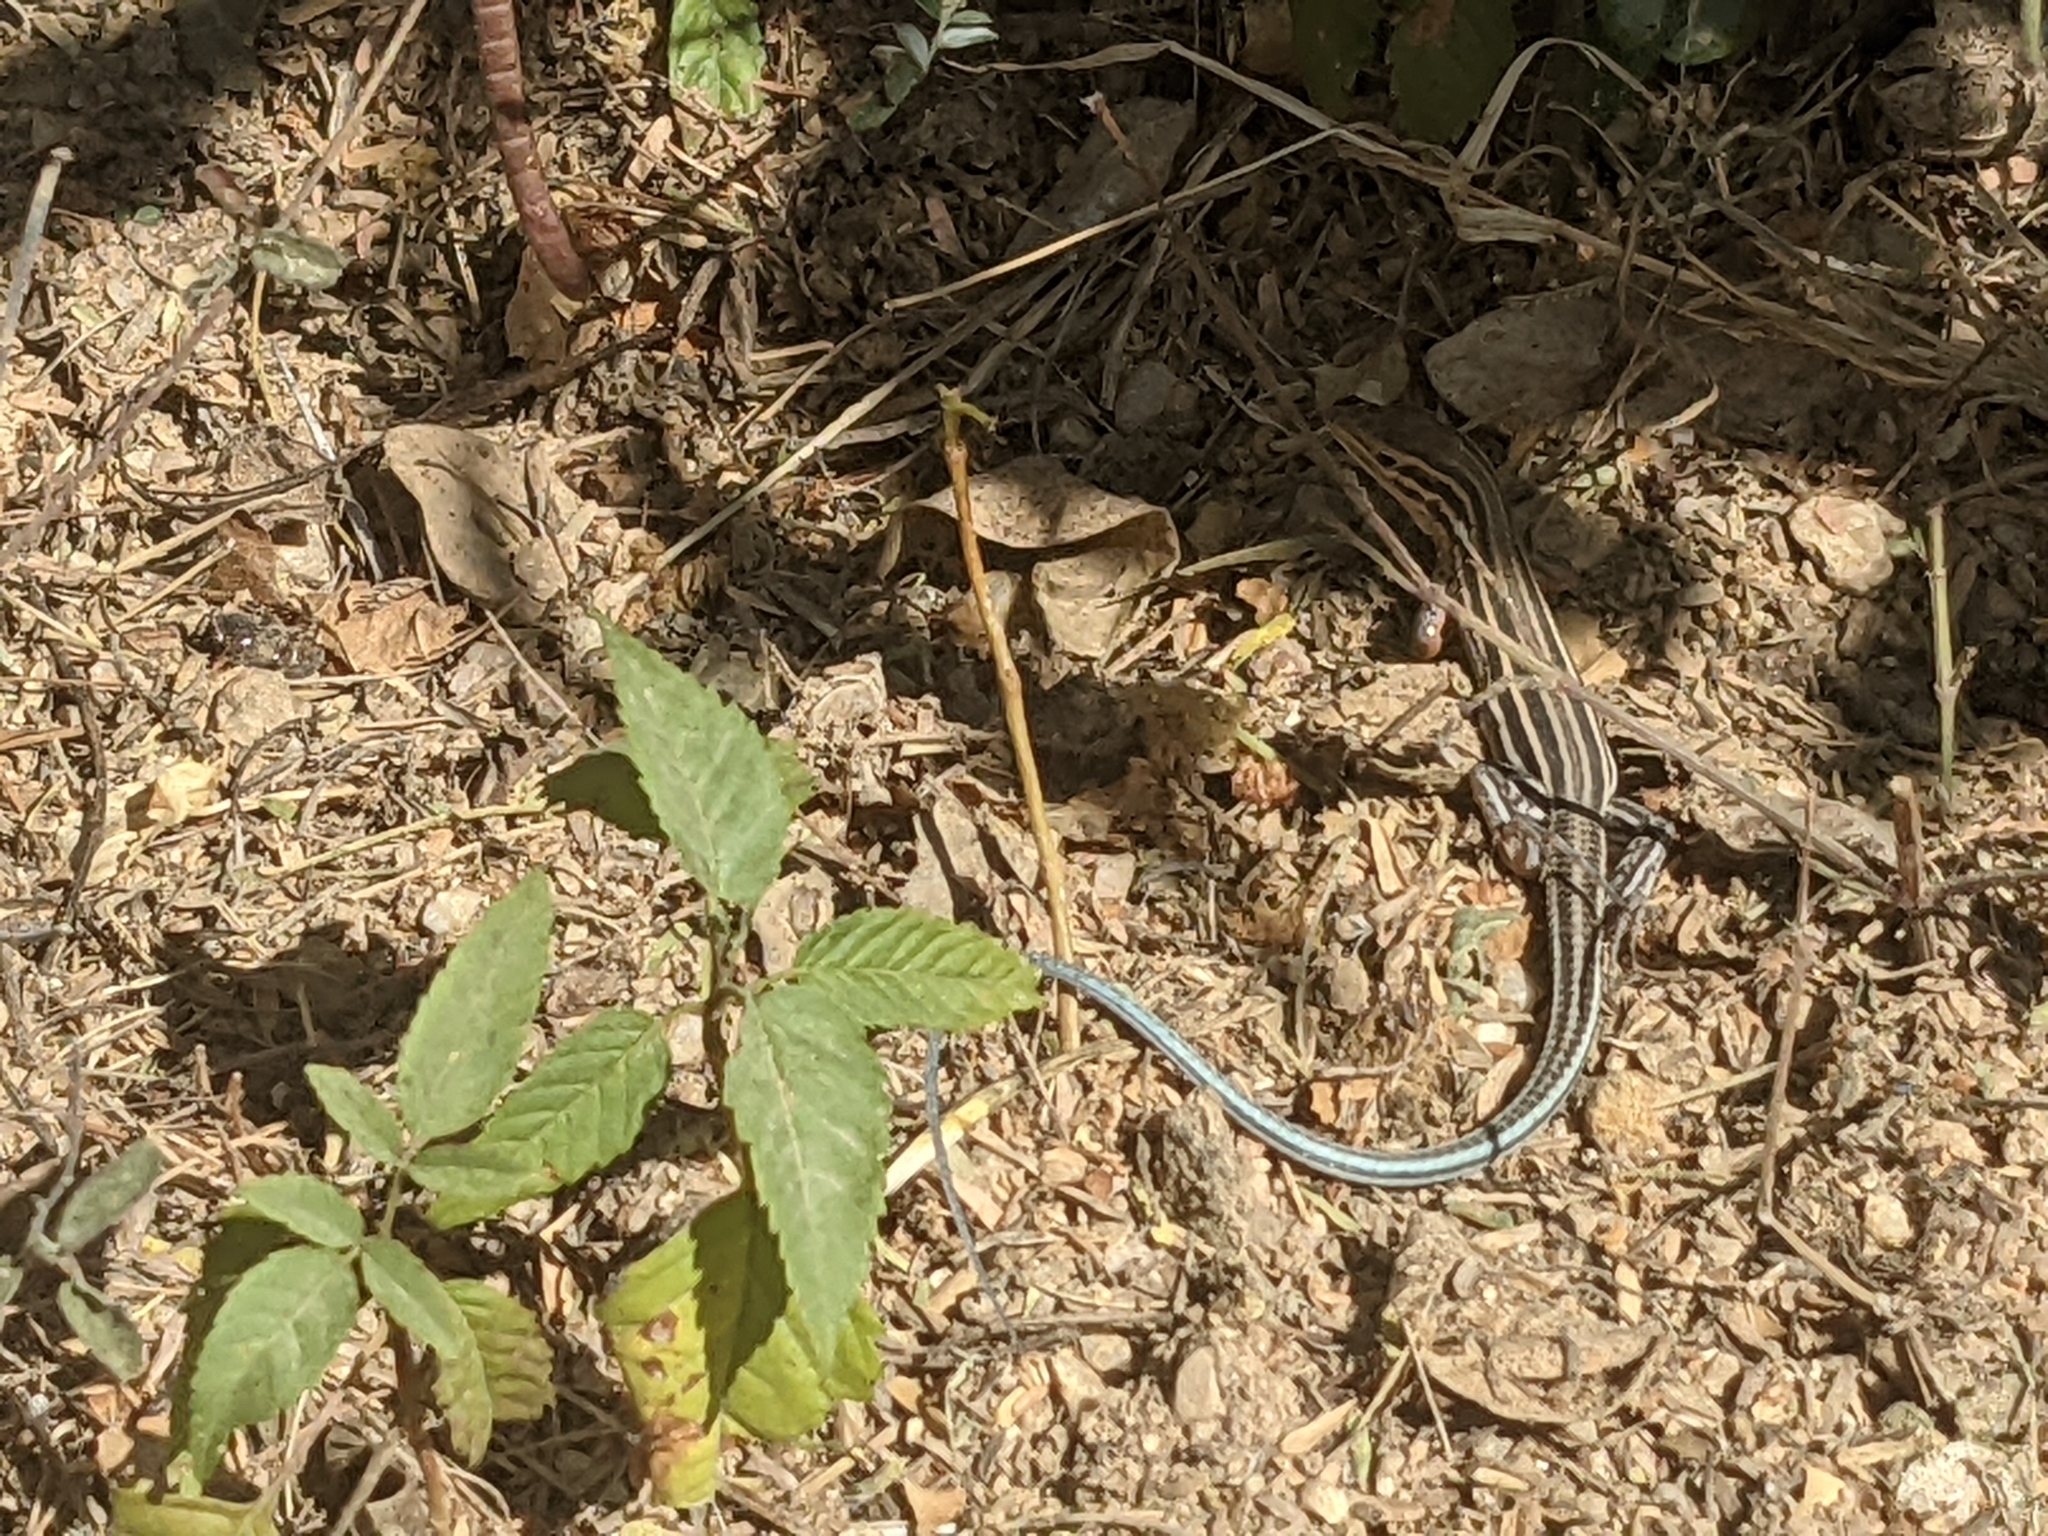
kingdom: Animalia
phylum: Chordata
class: Squamata
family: Teiidae
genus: Aspidoscelis
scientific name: Aspidoscelis hyperythrus
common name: Orange-throated race-runner
